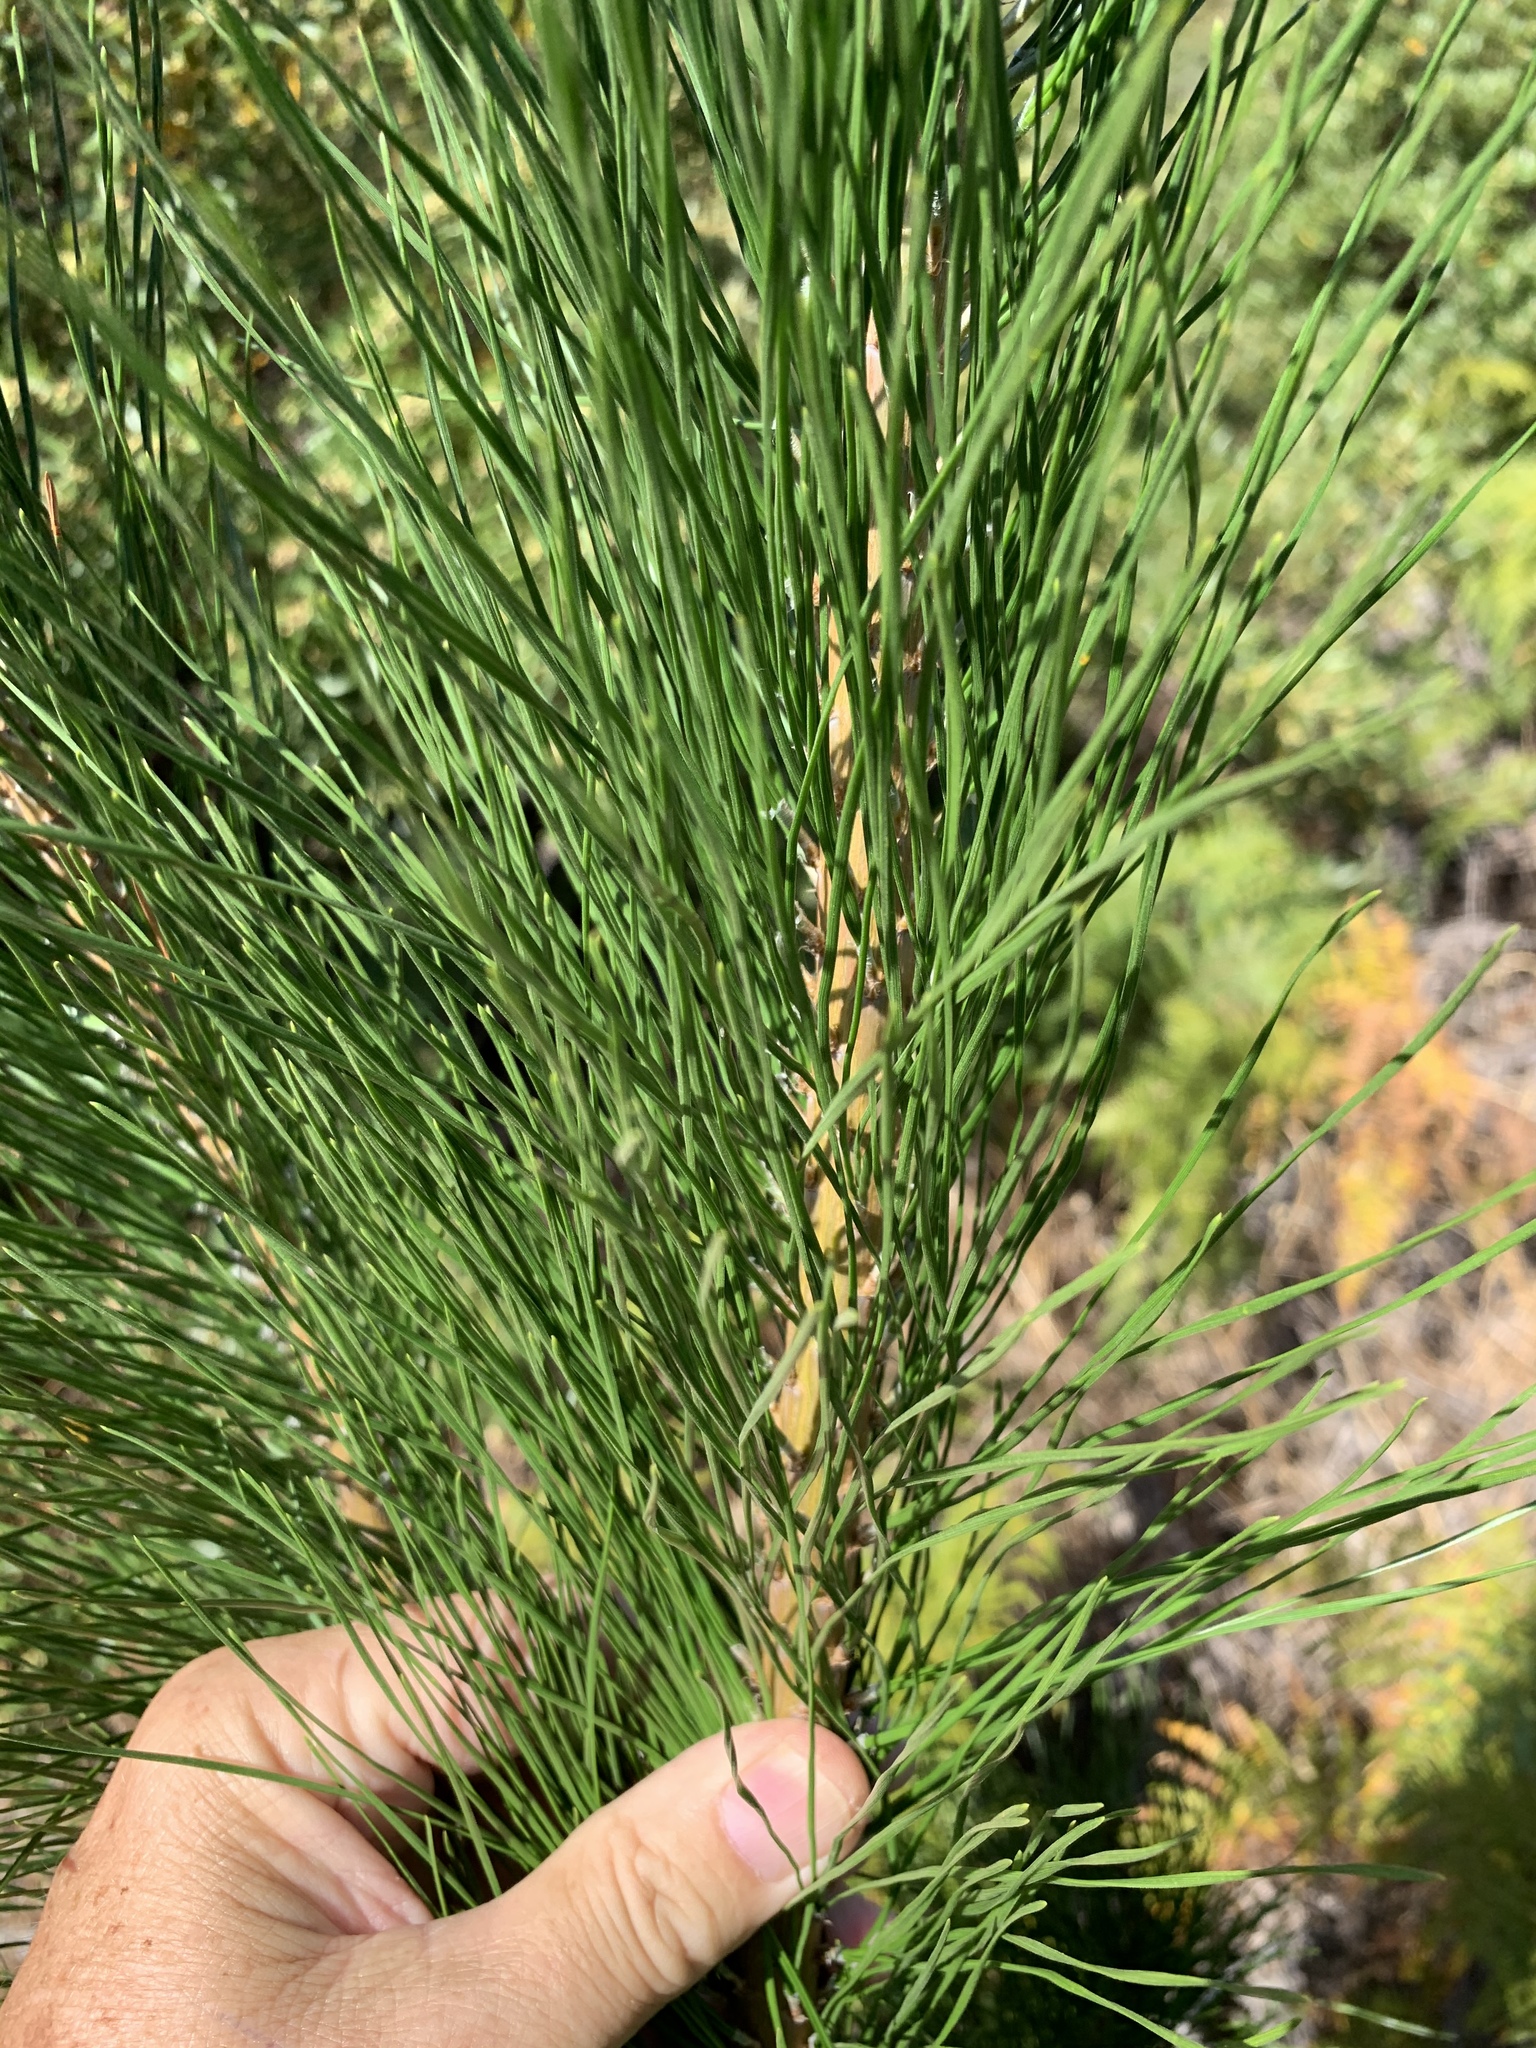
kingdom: Plantae
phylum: Tracheophyta
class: Pinopsida
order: Pinales
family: Pinaceae
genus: Pinus
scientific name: Pinus radiata
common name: Monterey pine
